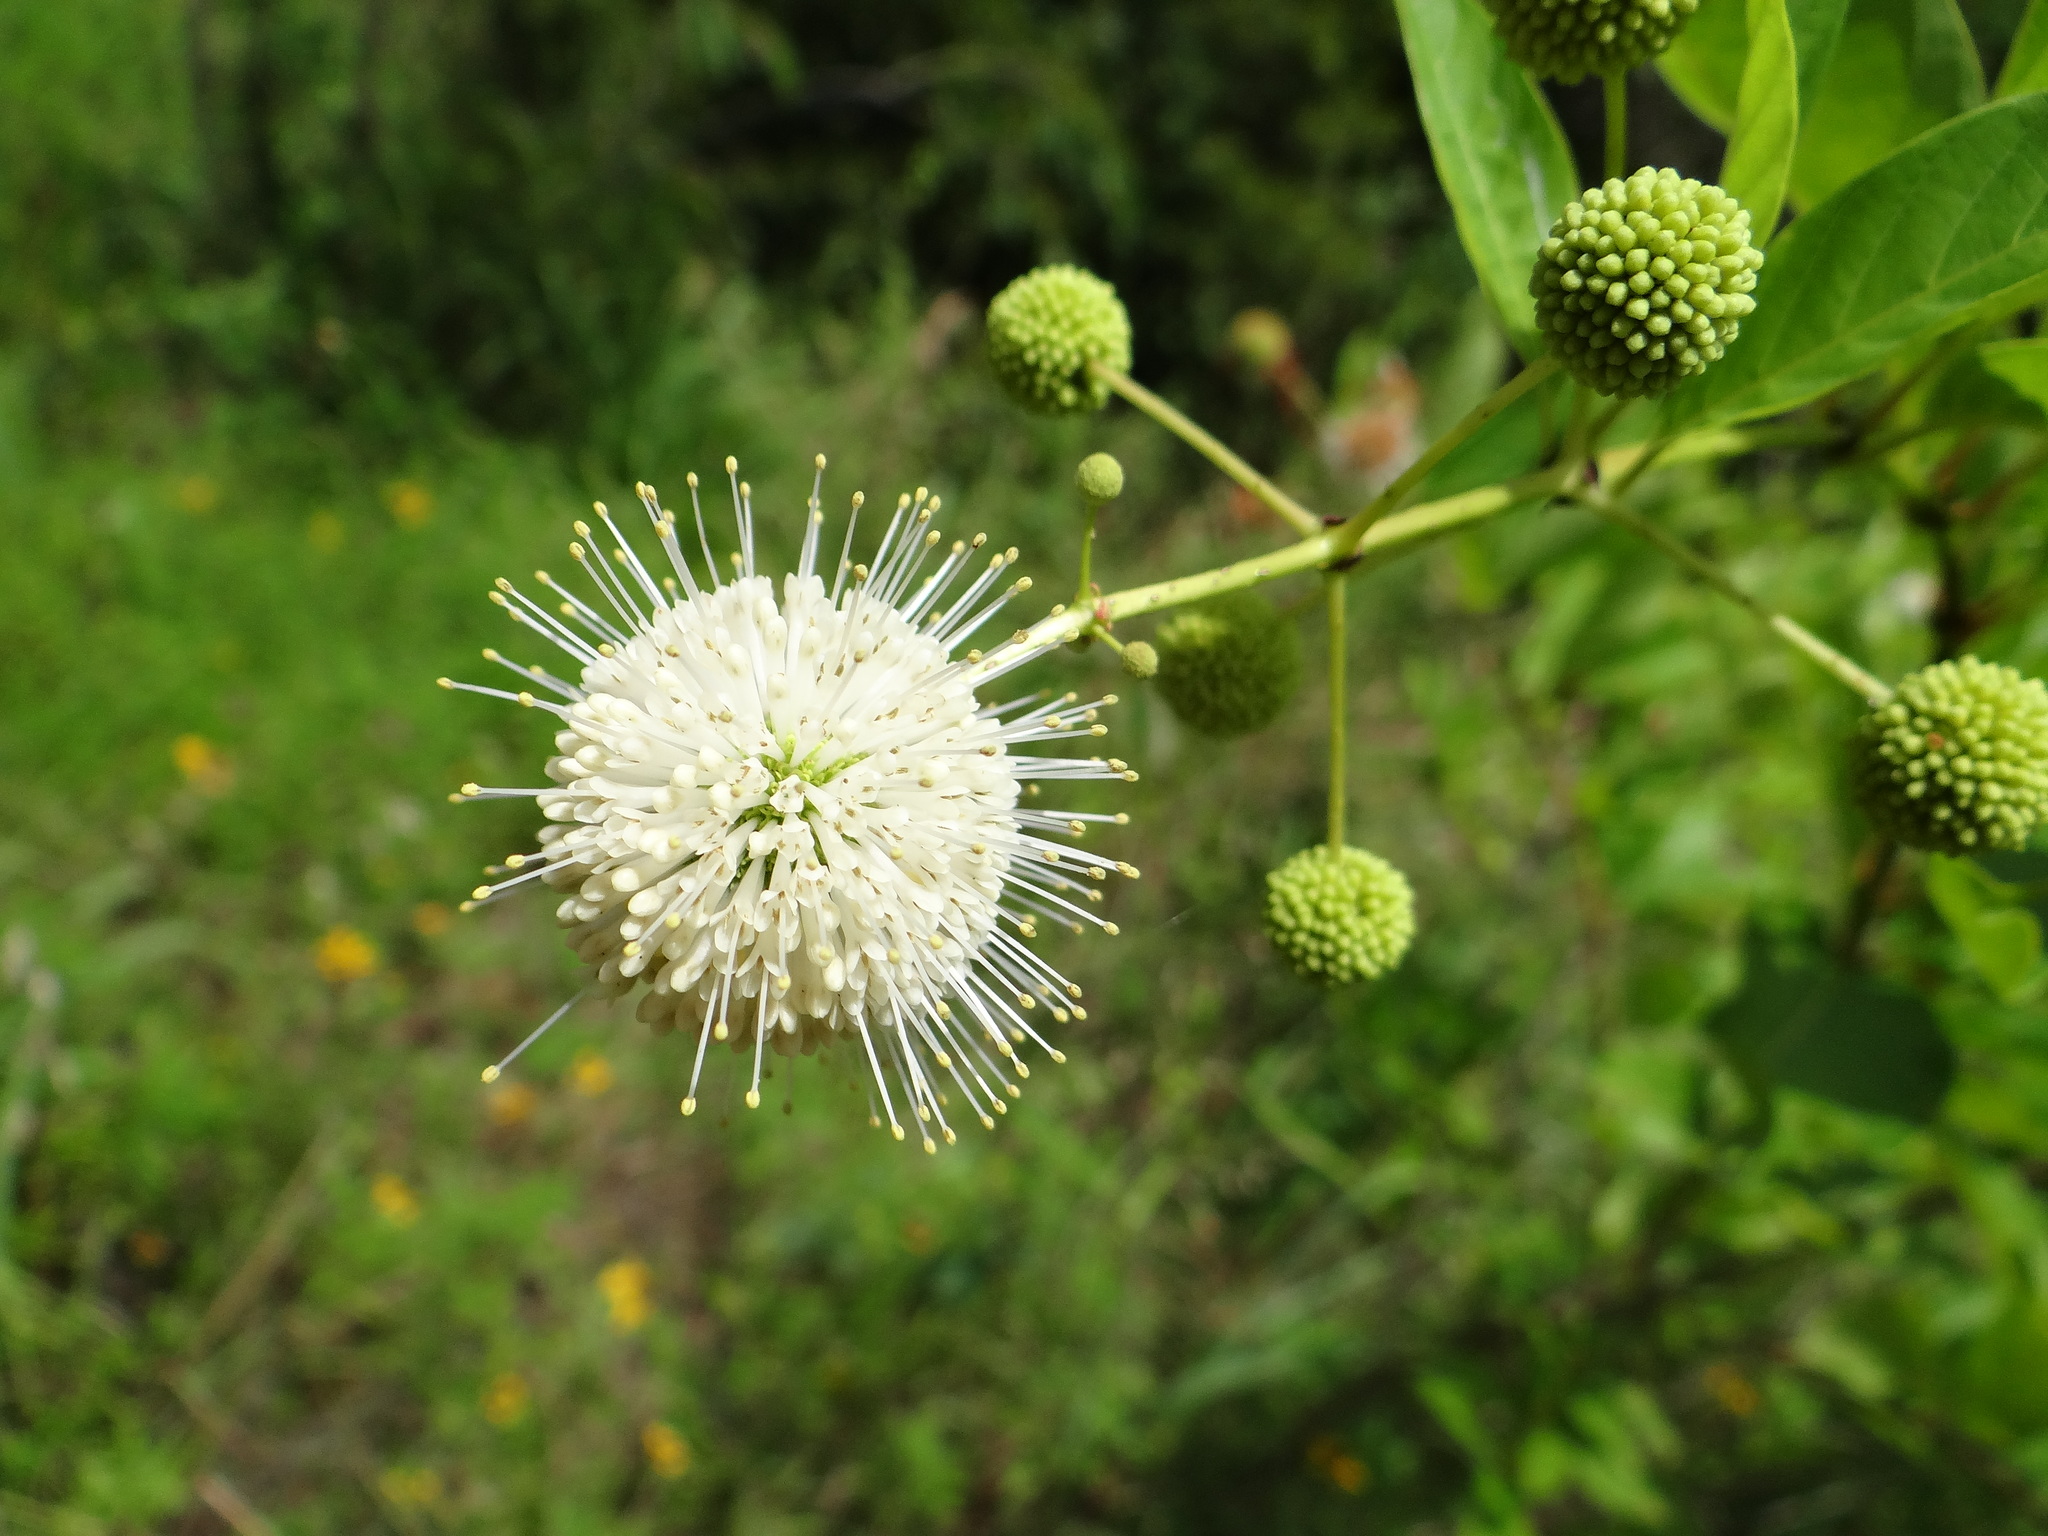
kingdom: Plantae
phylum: Tracheophyta
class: Magnoliopsida
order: Gentianales
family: Rubiaceae
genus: Cephalanthus
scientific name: Cephalanthus occidentalis
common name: Button-willow
